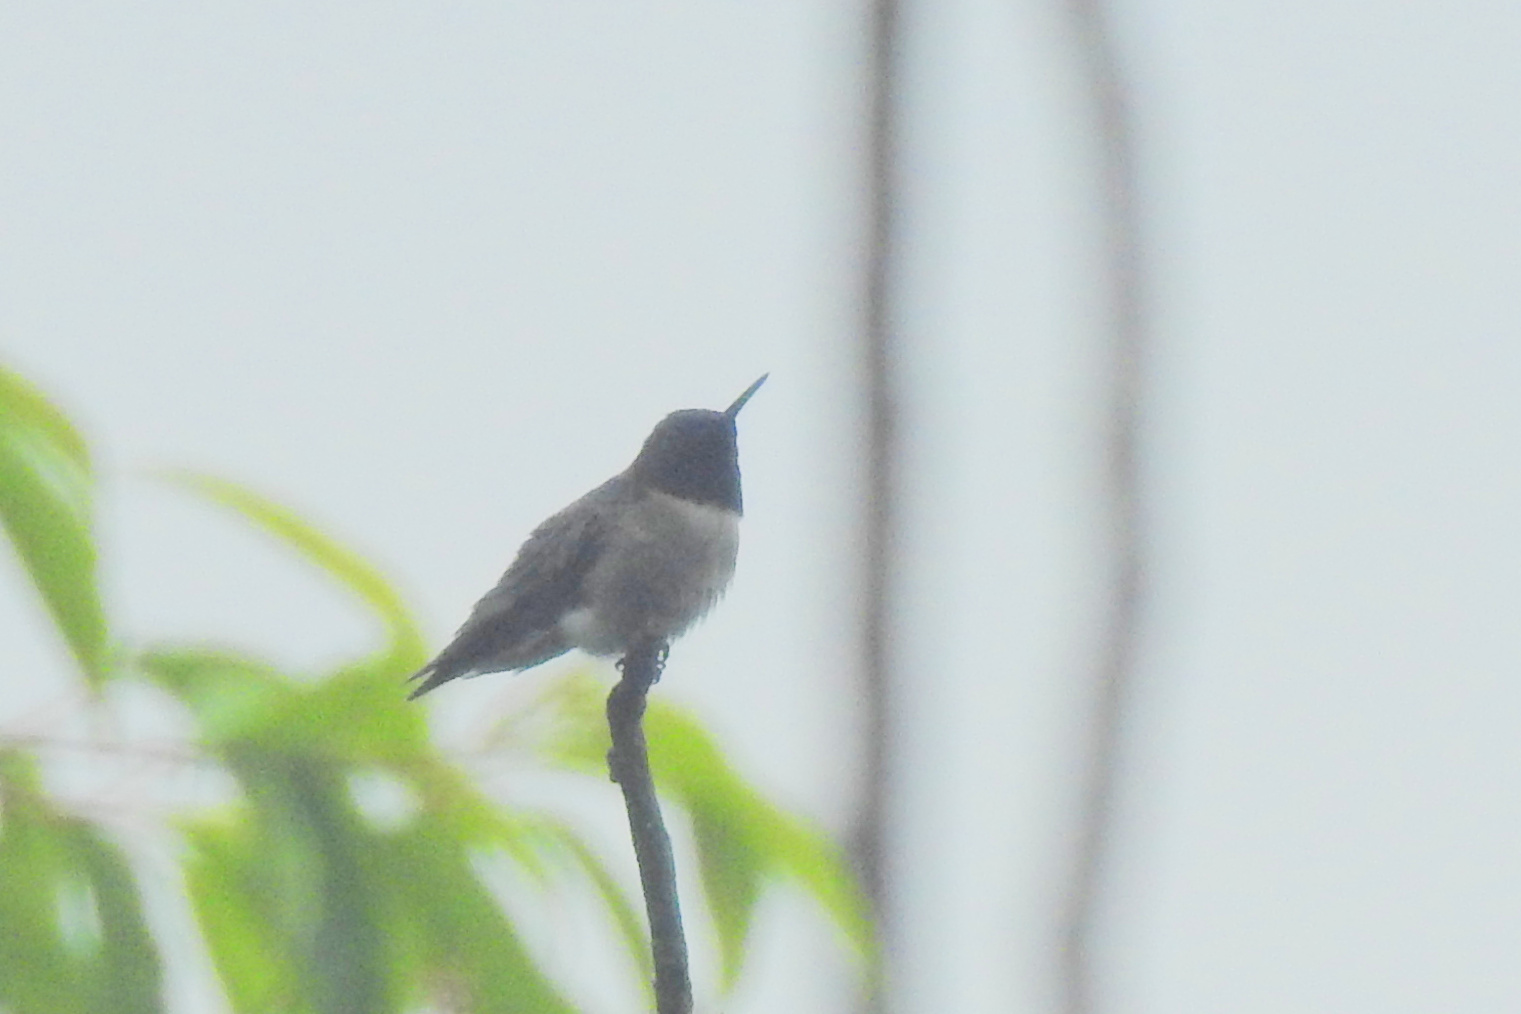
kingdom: Animalia
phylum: Chordata
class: Aves
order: Apodiformes
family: Trochilidae
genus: Archilochus
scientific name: Archilochus colubris
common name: Ruby-throated hummingbird
